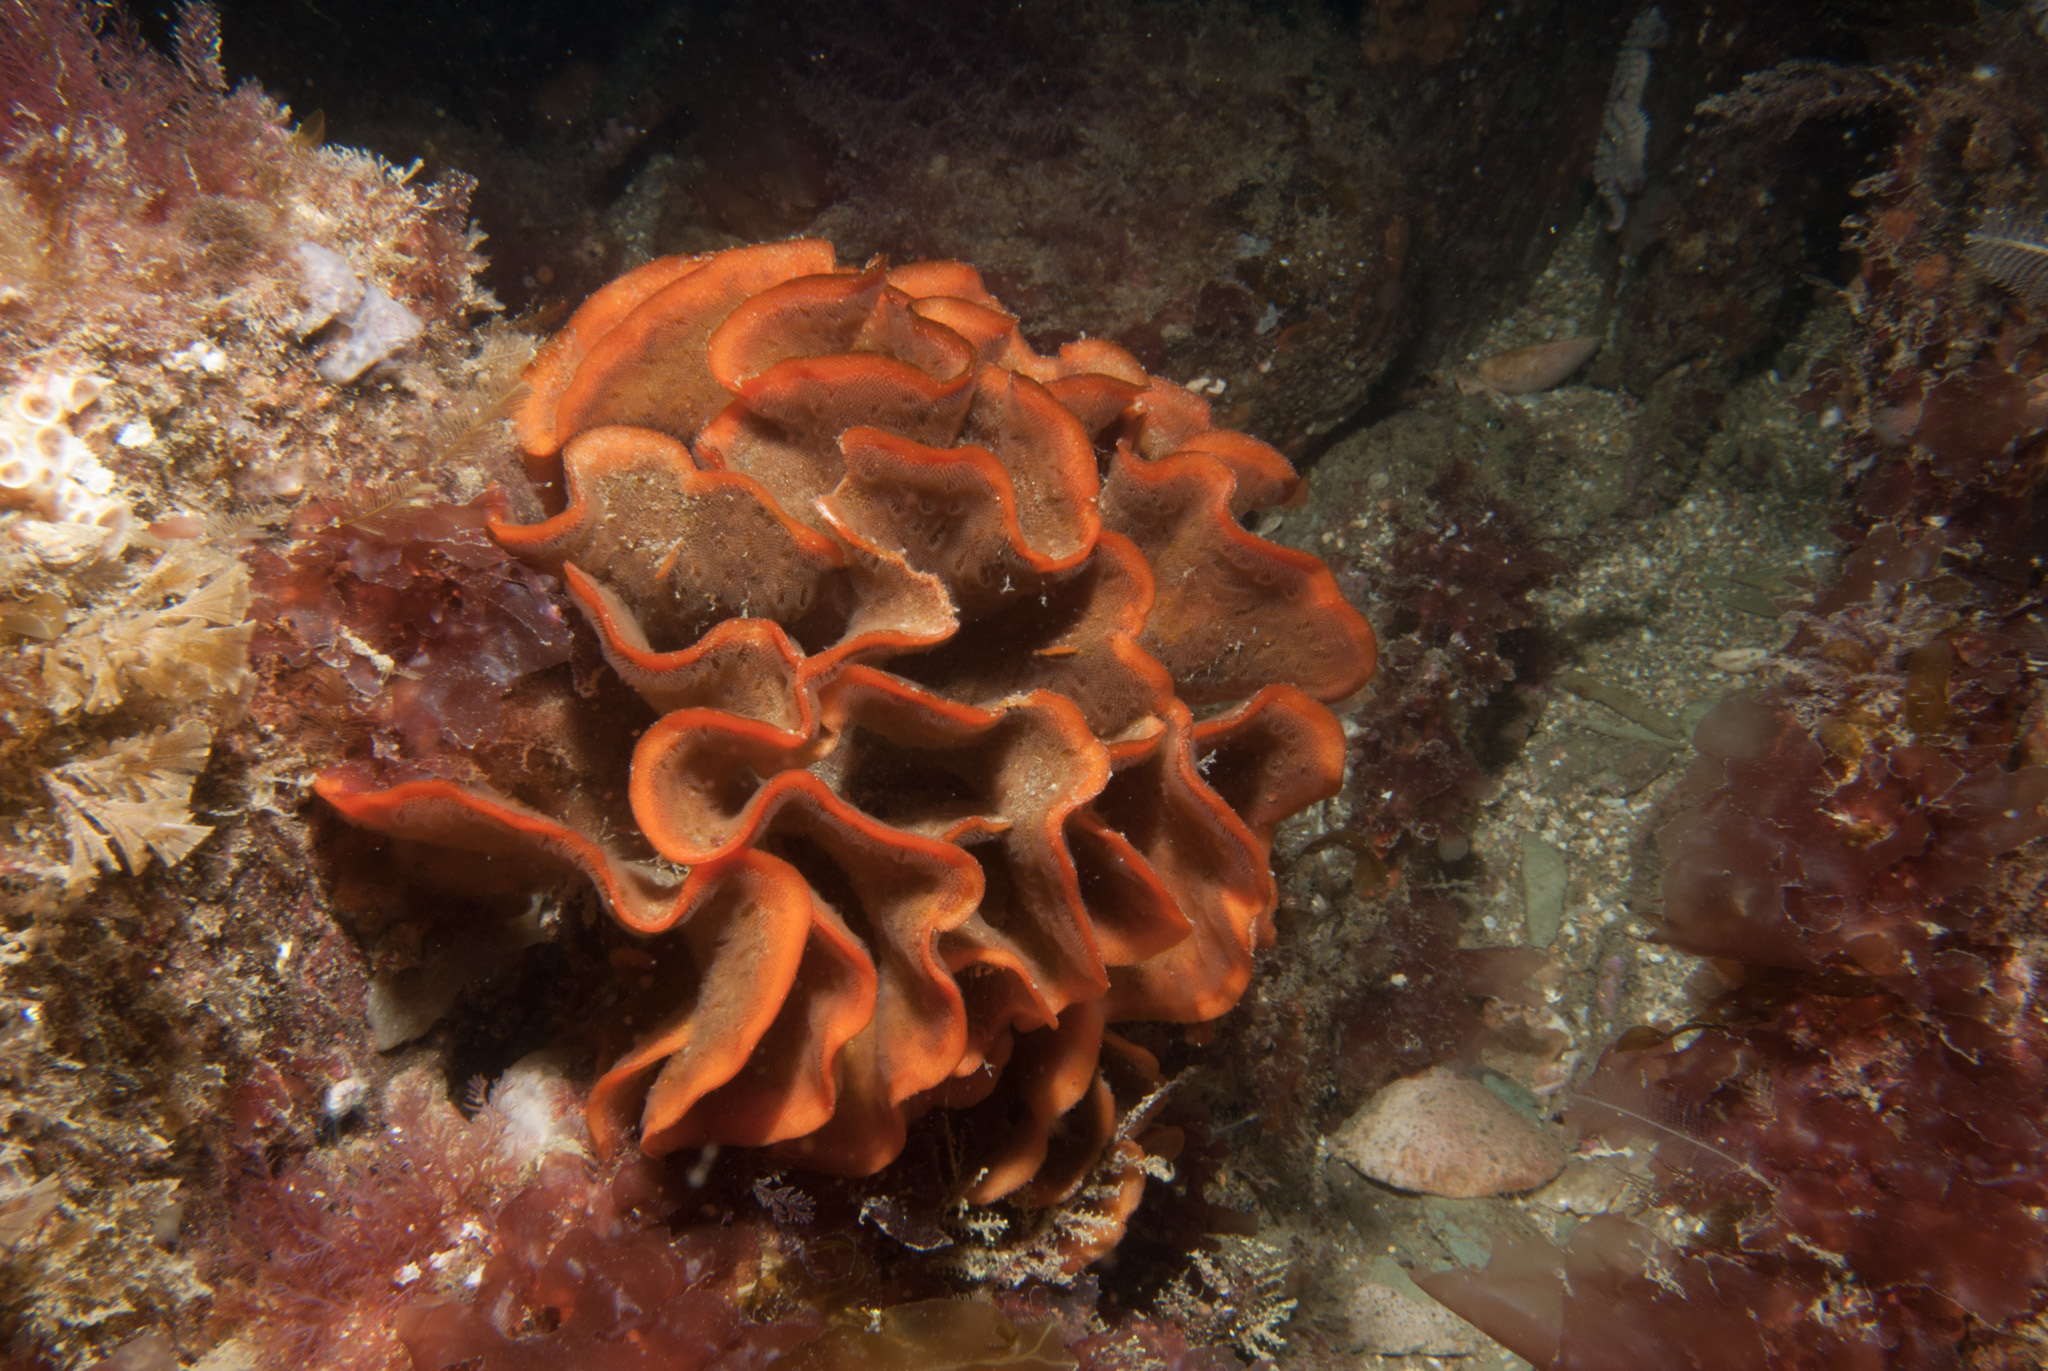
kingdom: Animalia
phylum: Bryozoa
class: Gymnolaemata
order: Cheilostomatida
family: Bitectiporidae
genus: Pentapora
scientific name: Pentapora foliacea
